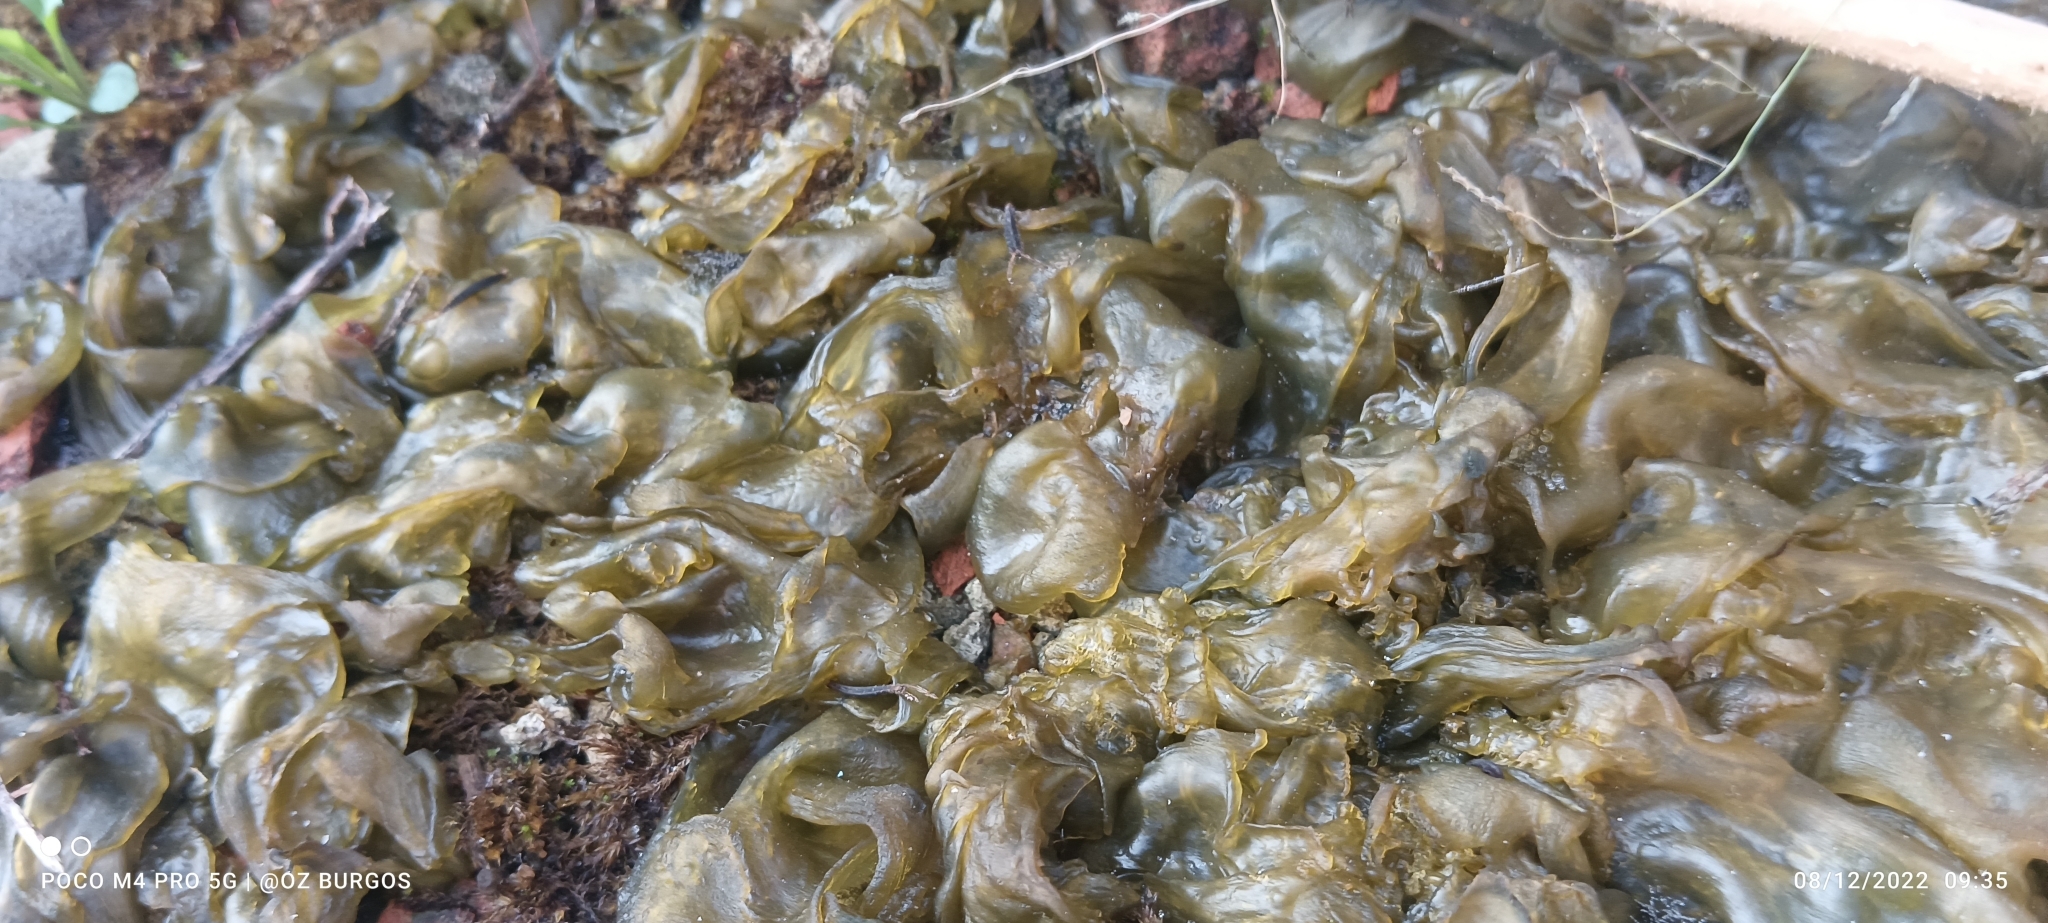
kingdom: Bacteria
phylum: Cyanobacteria
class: Cyanobacteriia
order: Cyanobacteriales
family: Nostocaceae
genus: Nostoc
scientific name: Nostoc commune
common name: Star jelly
